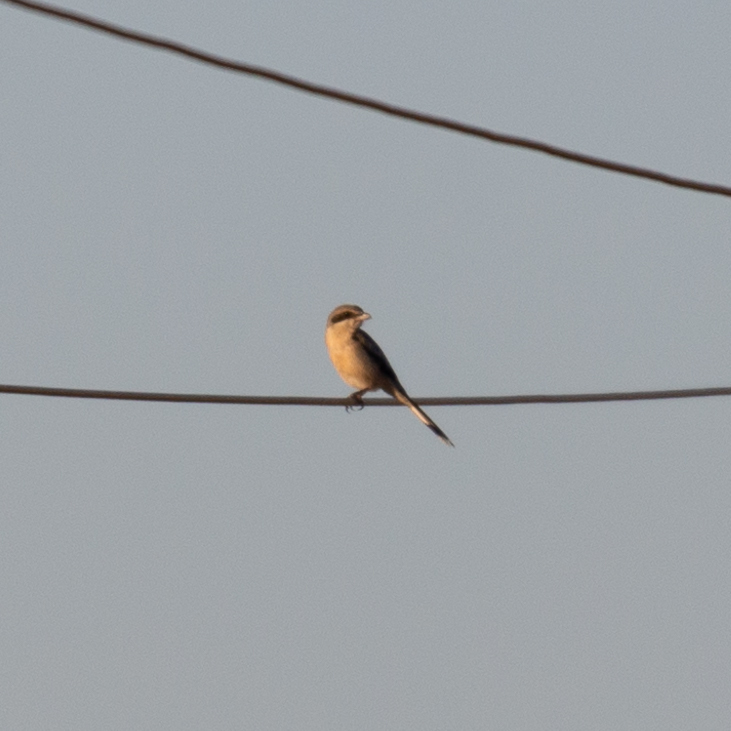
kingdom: Animalia
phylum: Chordata
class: Aves
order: Passeriformes
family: Laniidae
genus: Lanius
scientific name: Lanius meridionalis
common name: Iberian grey shrike
